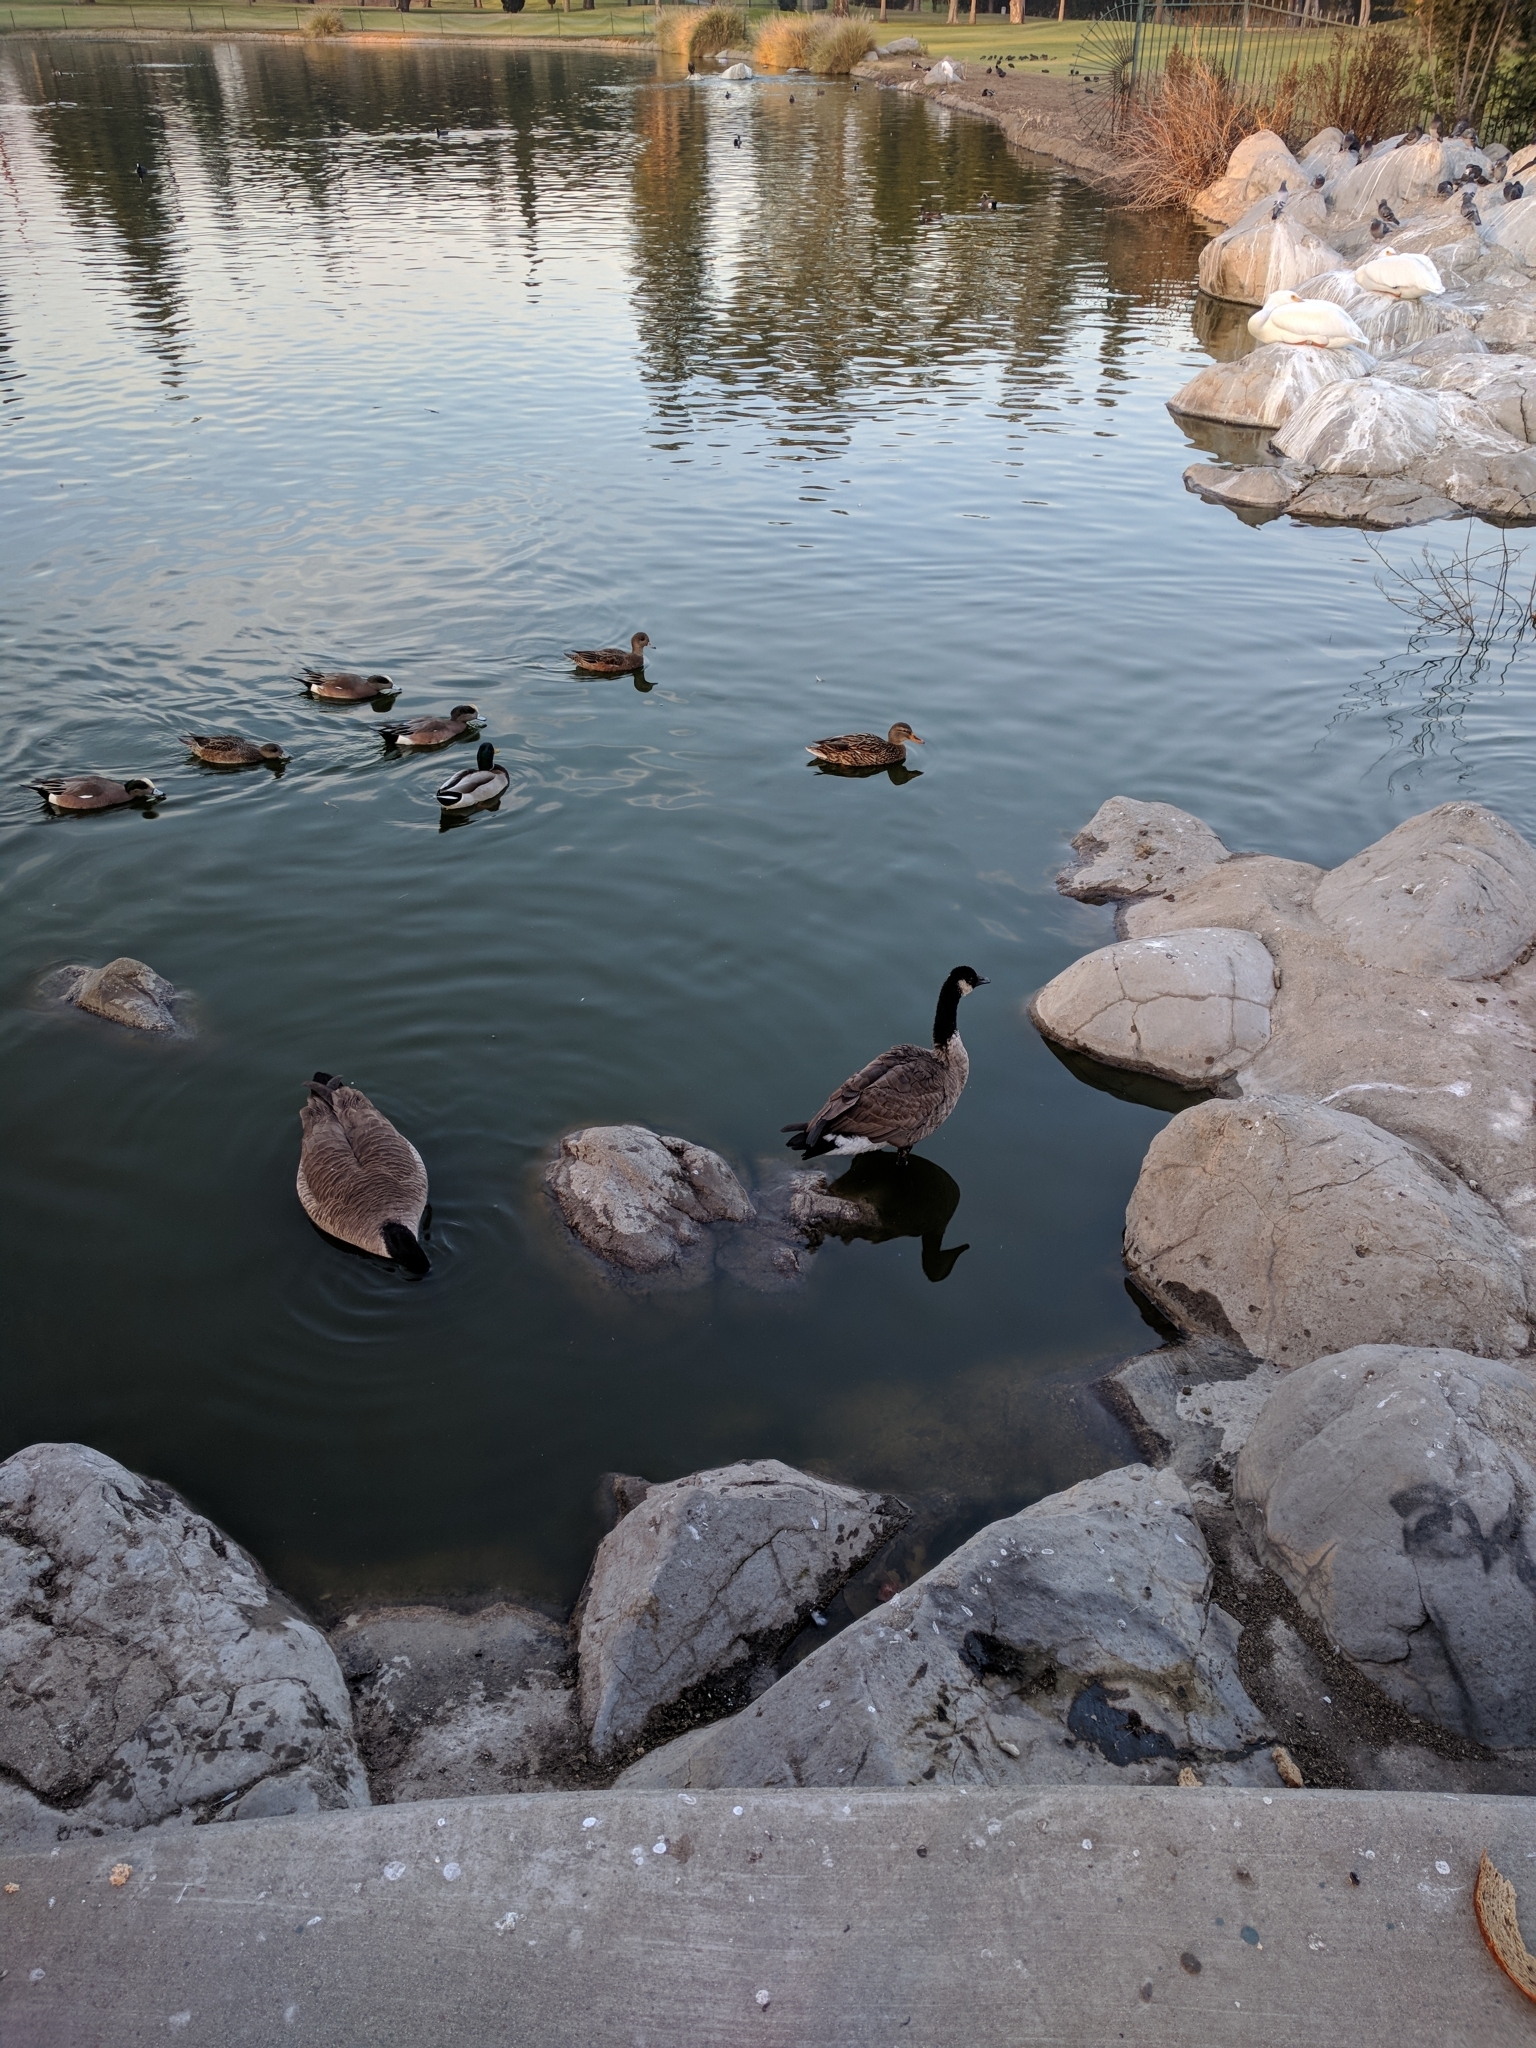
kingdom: Animalia
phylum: Chordata
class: Aves
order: Anseriformes
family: Anatidae
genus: Branta
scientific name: Branta canadensis
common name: Canada goose
